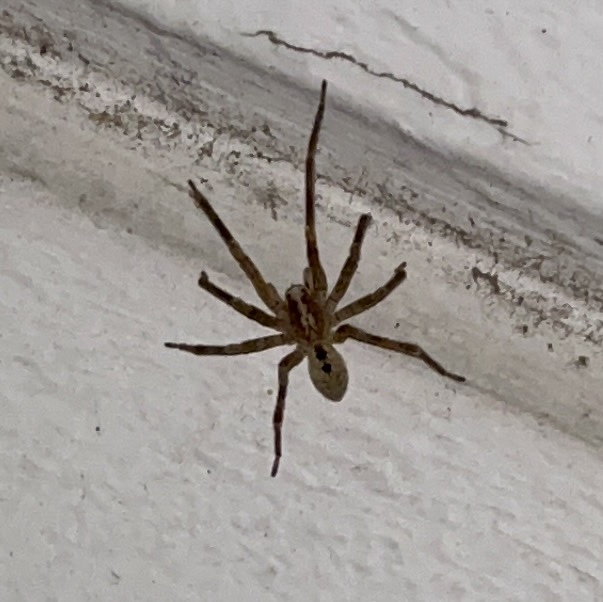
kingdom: Animalia
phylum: Arthropoda
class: Arachnida
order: Araneae
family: Zoropsidae
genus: Zoropsis
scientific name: Zoropsis spinimana
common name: Zoropsid spider
